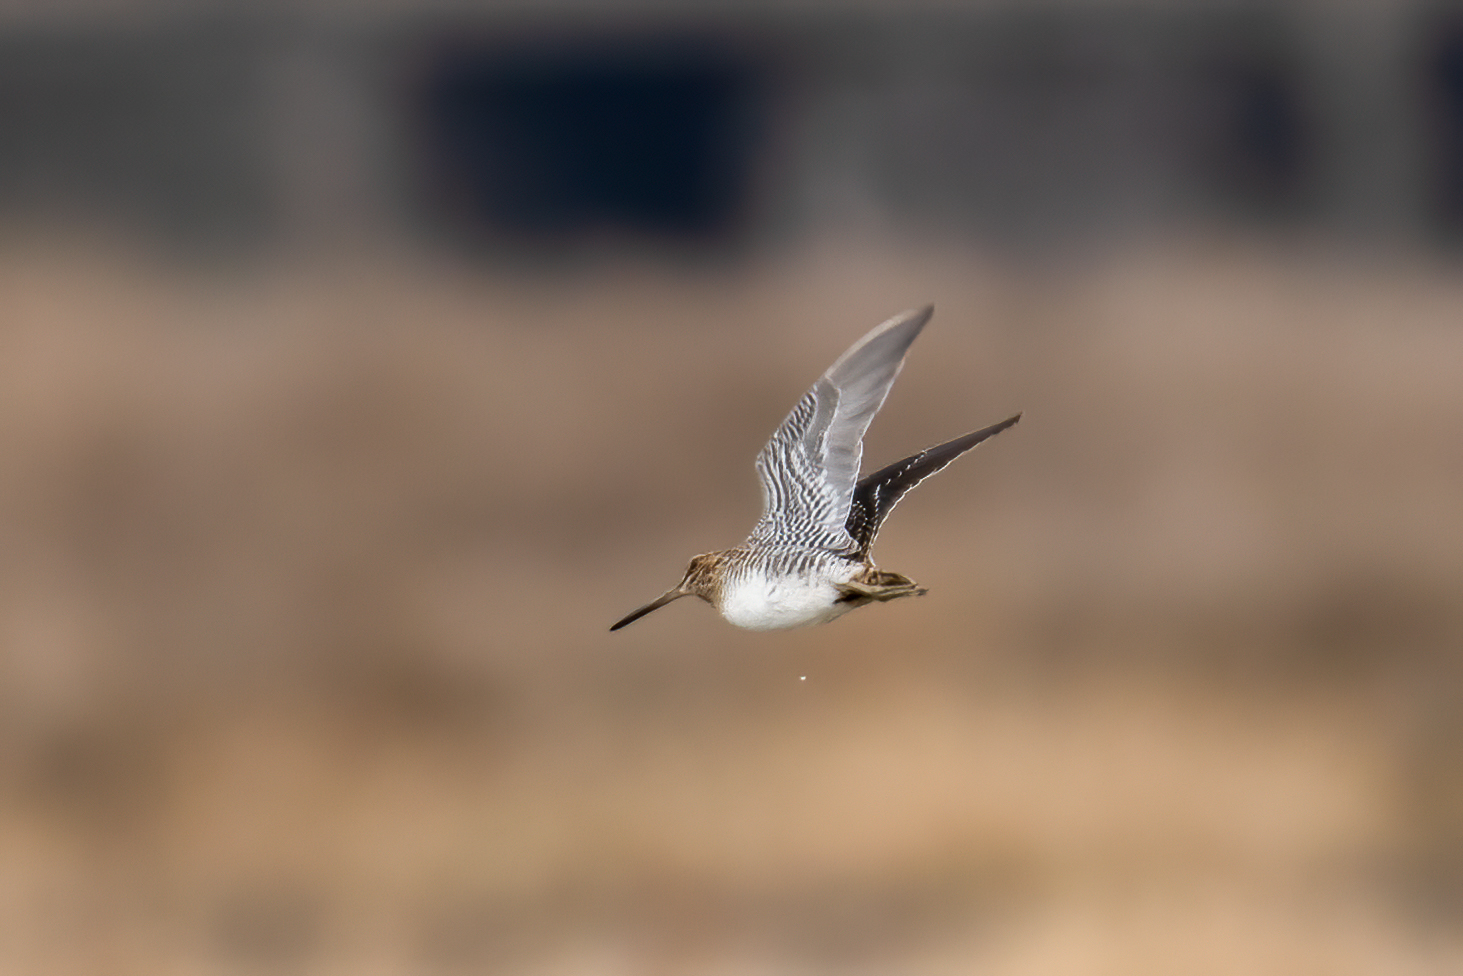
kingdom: Animalia
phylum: Chordata
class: Aves
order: Charadriiformes
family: Scolopacidae
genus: Gallinago
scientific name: Gallinago delicata
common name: Wilson's snipe
